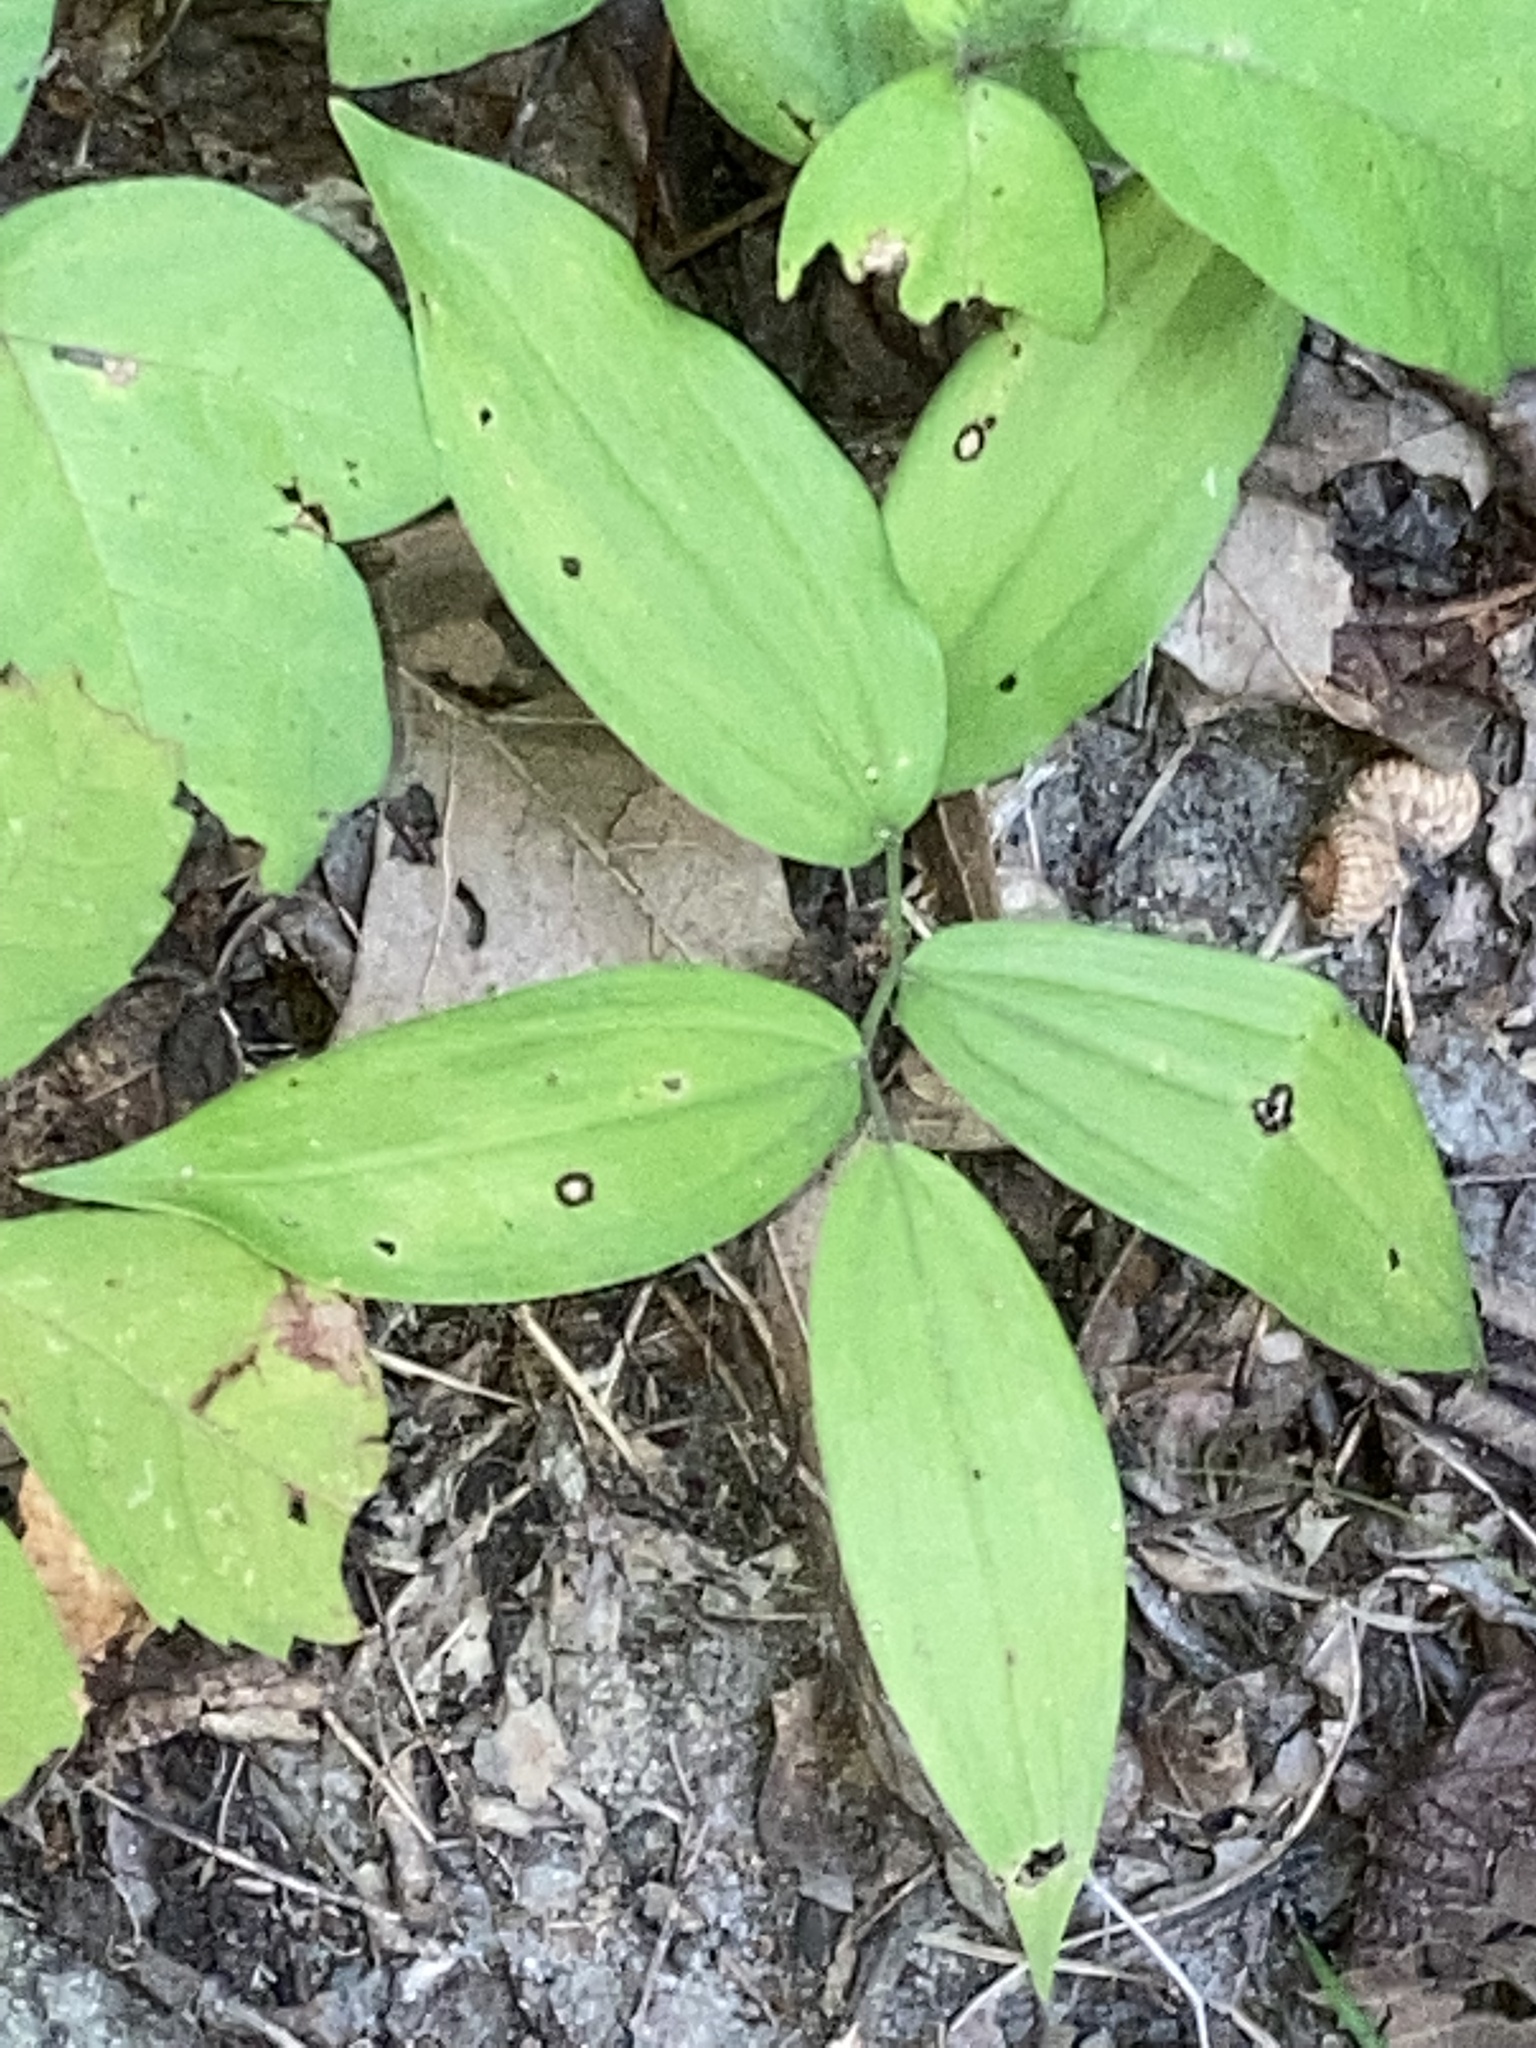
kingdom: Plantae
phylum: Tracheophyta
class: Liliopsida
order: Asparagales
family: Asparagaceae
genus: Maianthemum
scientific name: Maianthemum racemosum
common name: False spikenard
